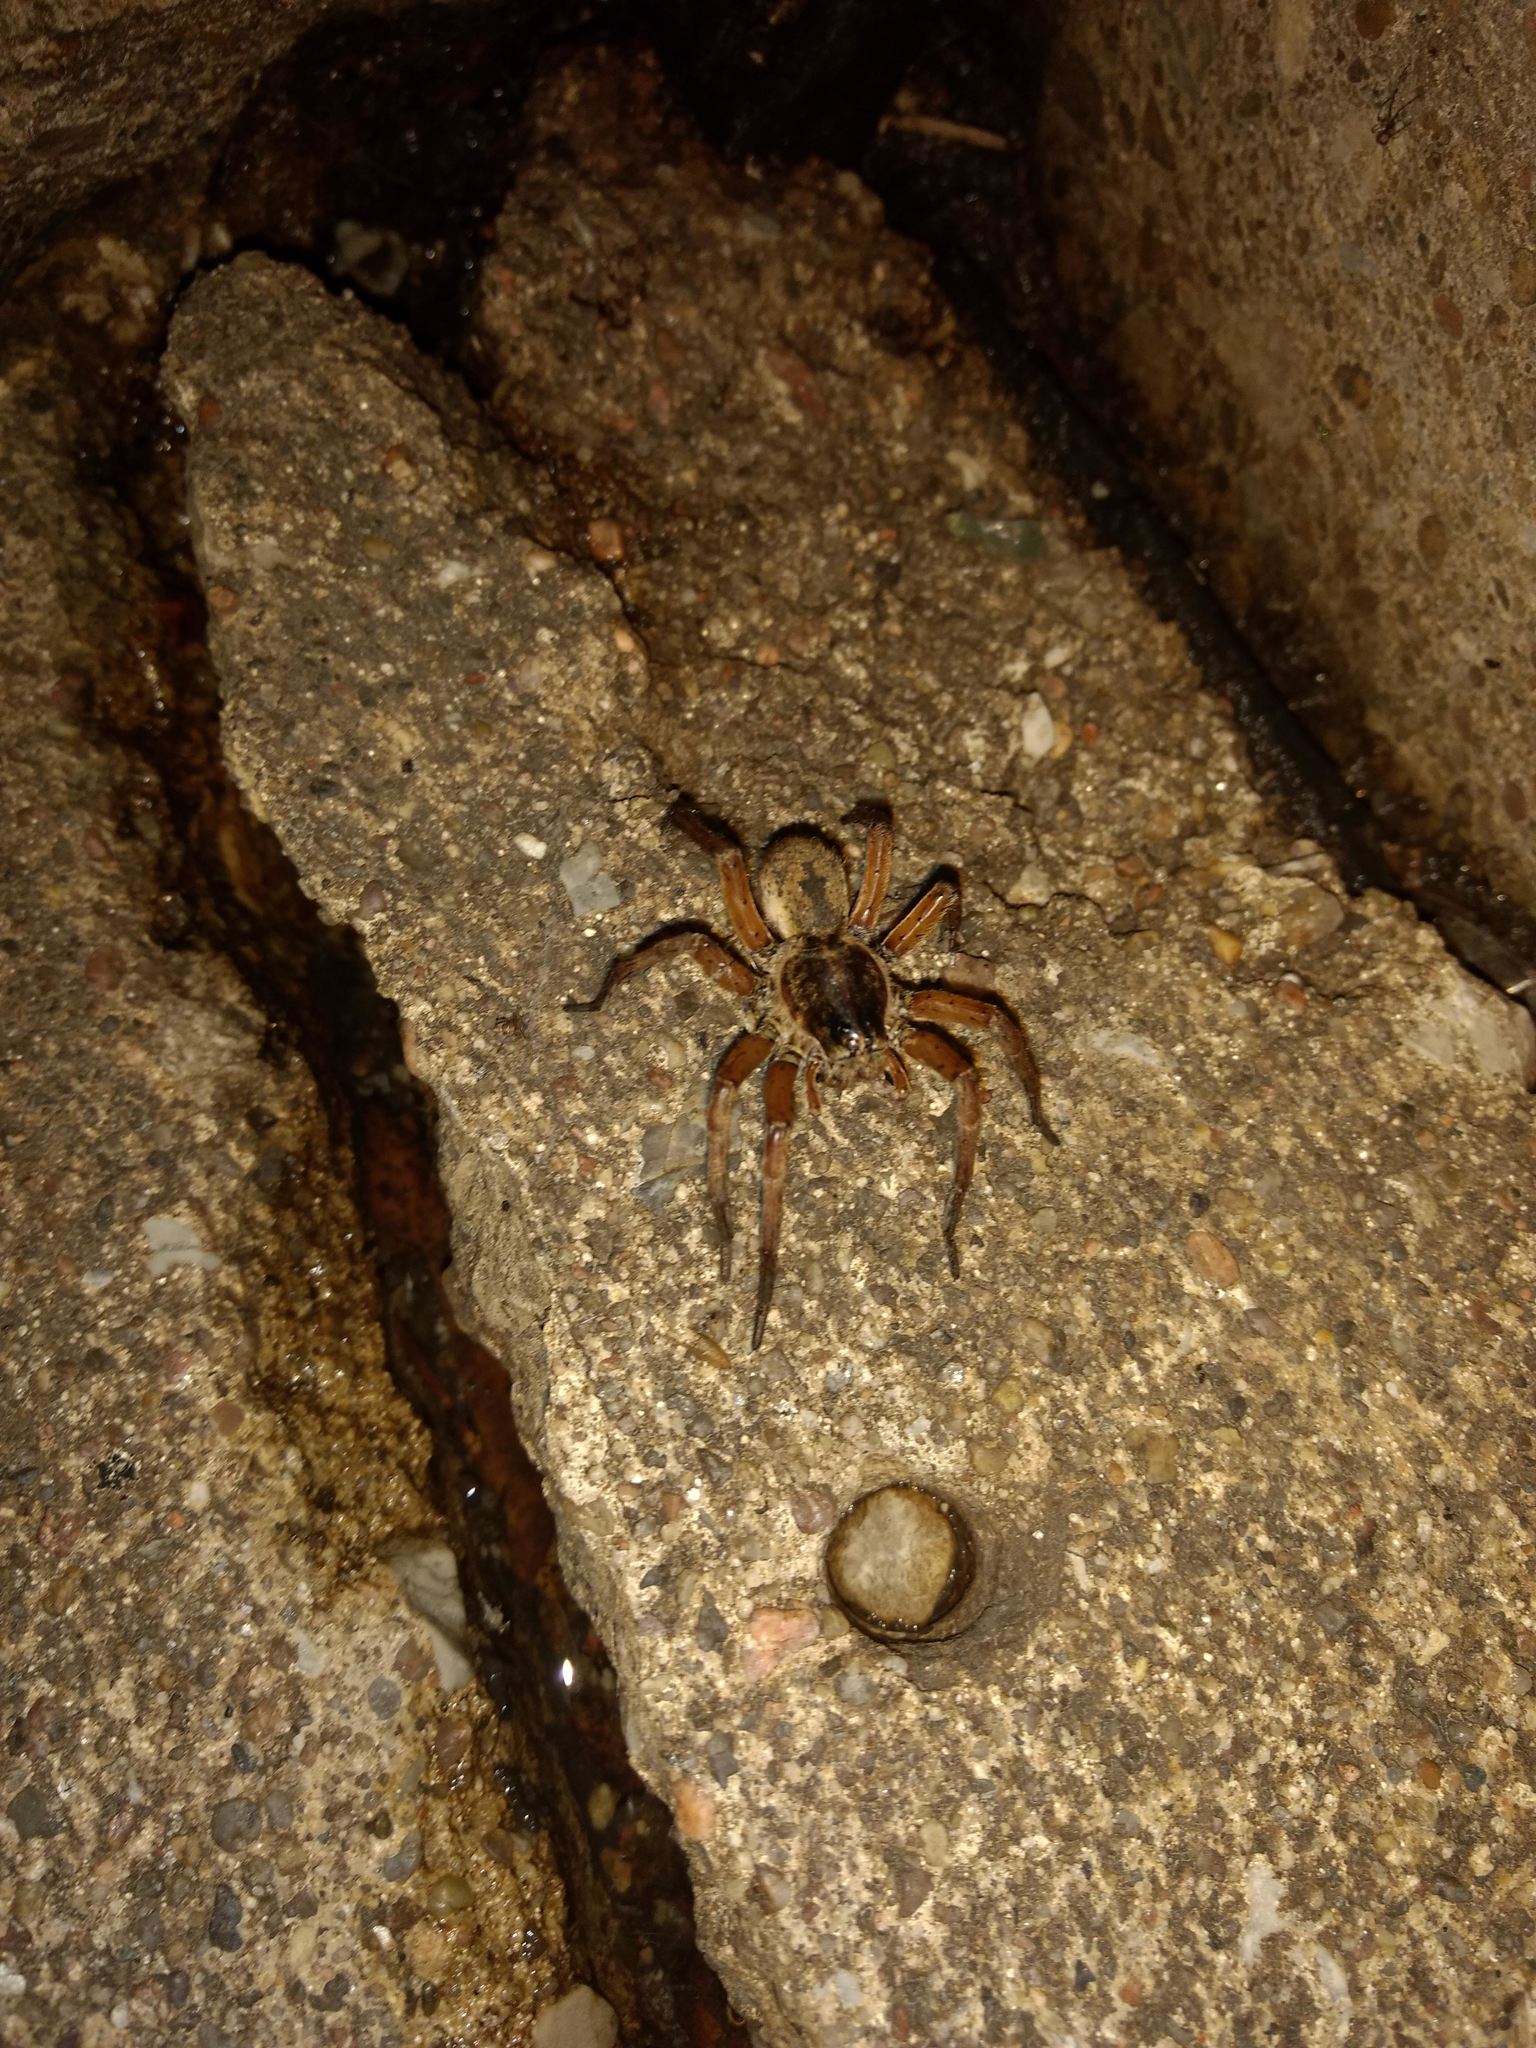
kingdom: Animalia
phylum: Arthropoda
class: Arachnida
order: Araneae
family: Lycosidae
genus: Tigrosa
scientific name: Tigrosa grandis
